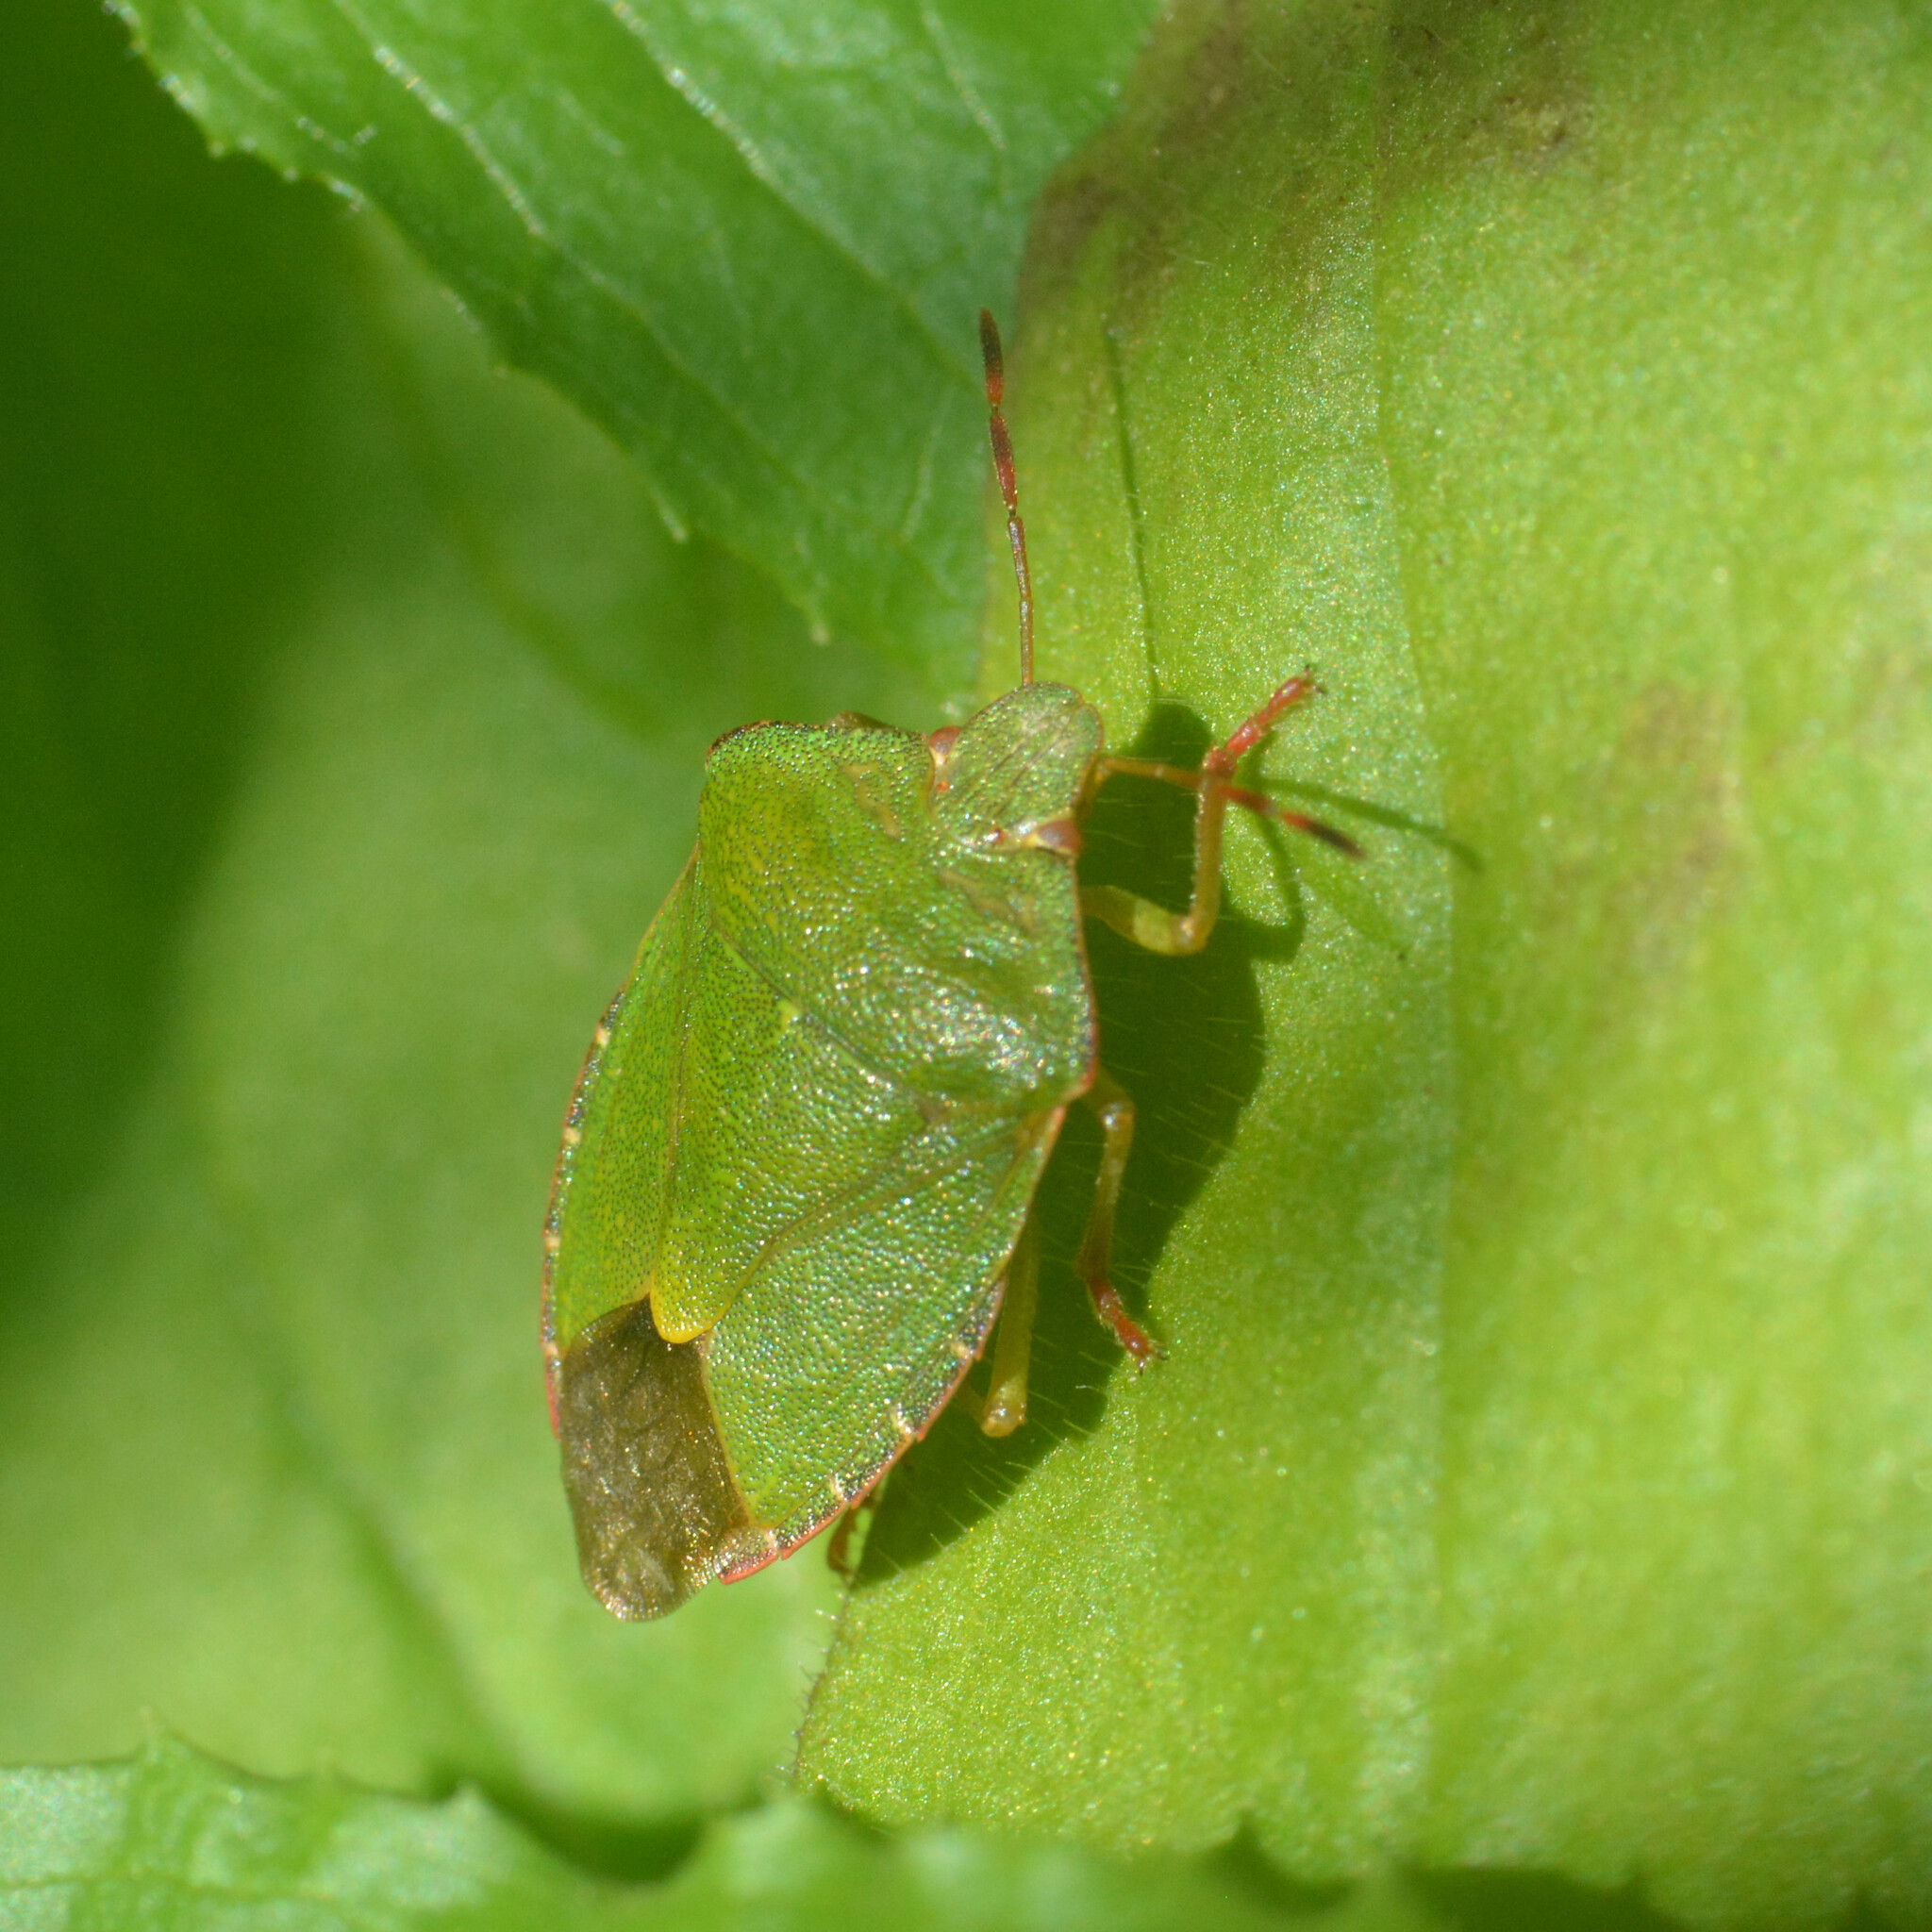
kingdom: Animalia
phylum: Arthropoda
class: Insecta
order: Hemiptera
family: Pentatomidae
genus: Palomena
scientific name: Palomena prasina
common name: Green shieldbug
